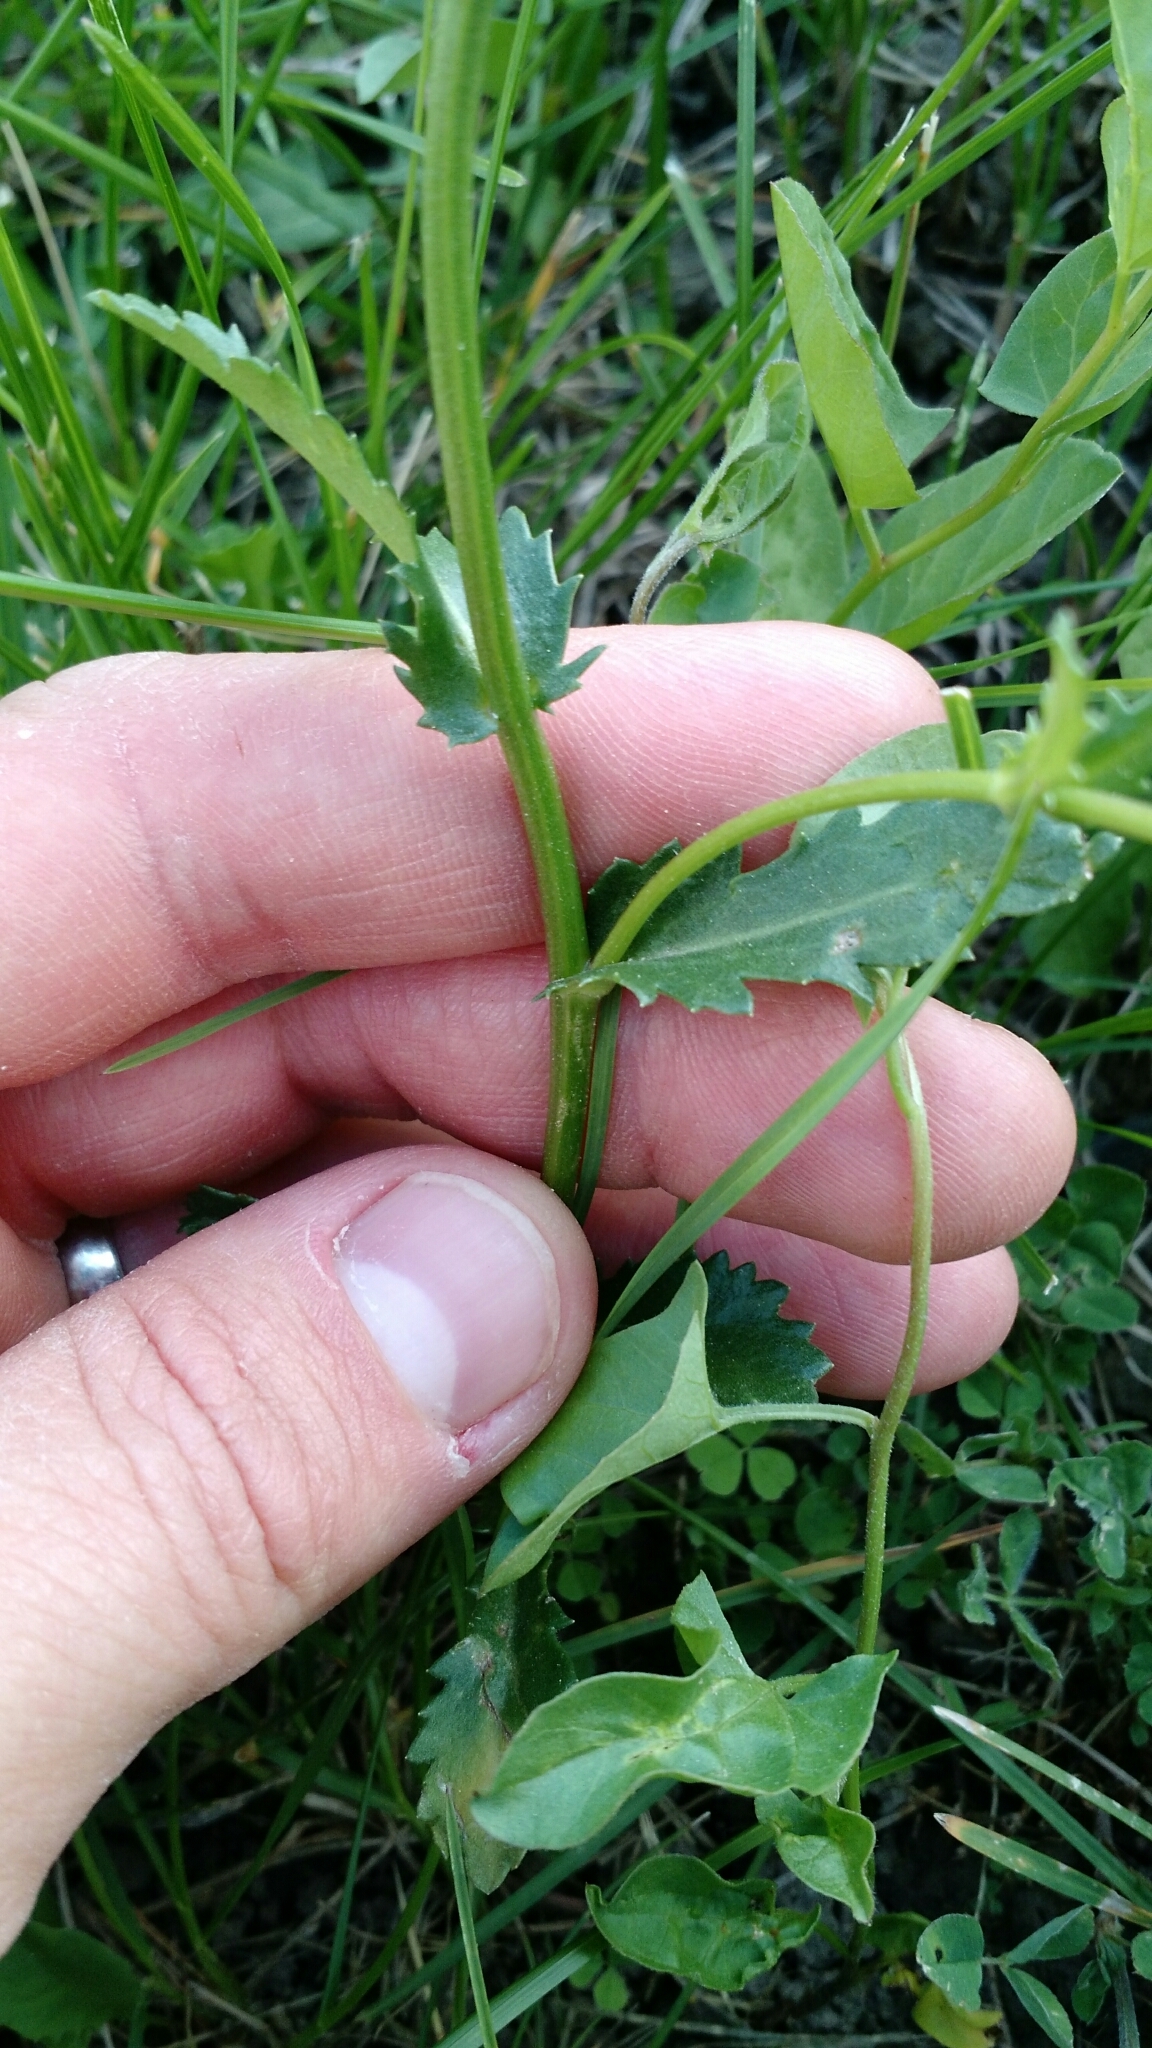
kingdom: Plantae
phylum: Tracheophyta
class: Magnoliopsida
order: Asterales
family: Asteraceae
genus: Leucanthemum
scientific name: Leucanthemum vulgare
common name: Oxeye daisy
